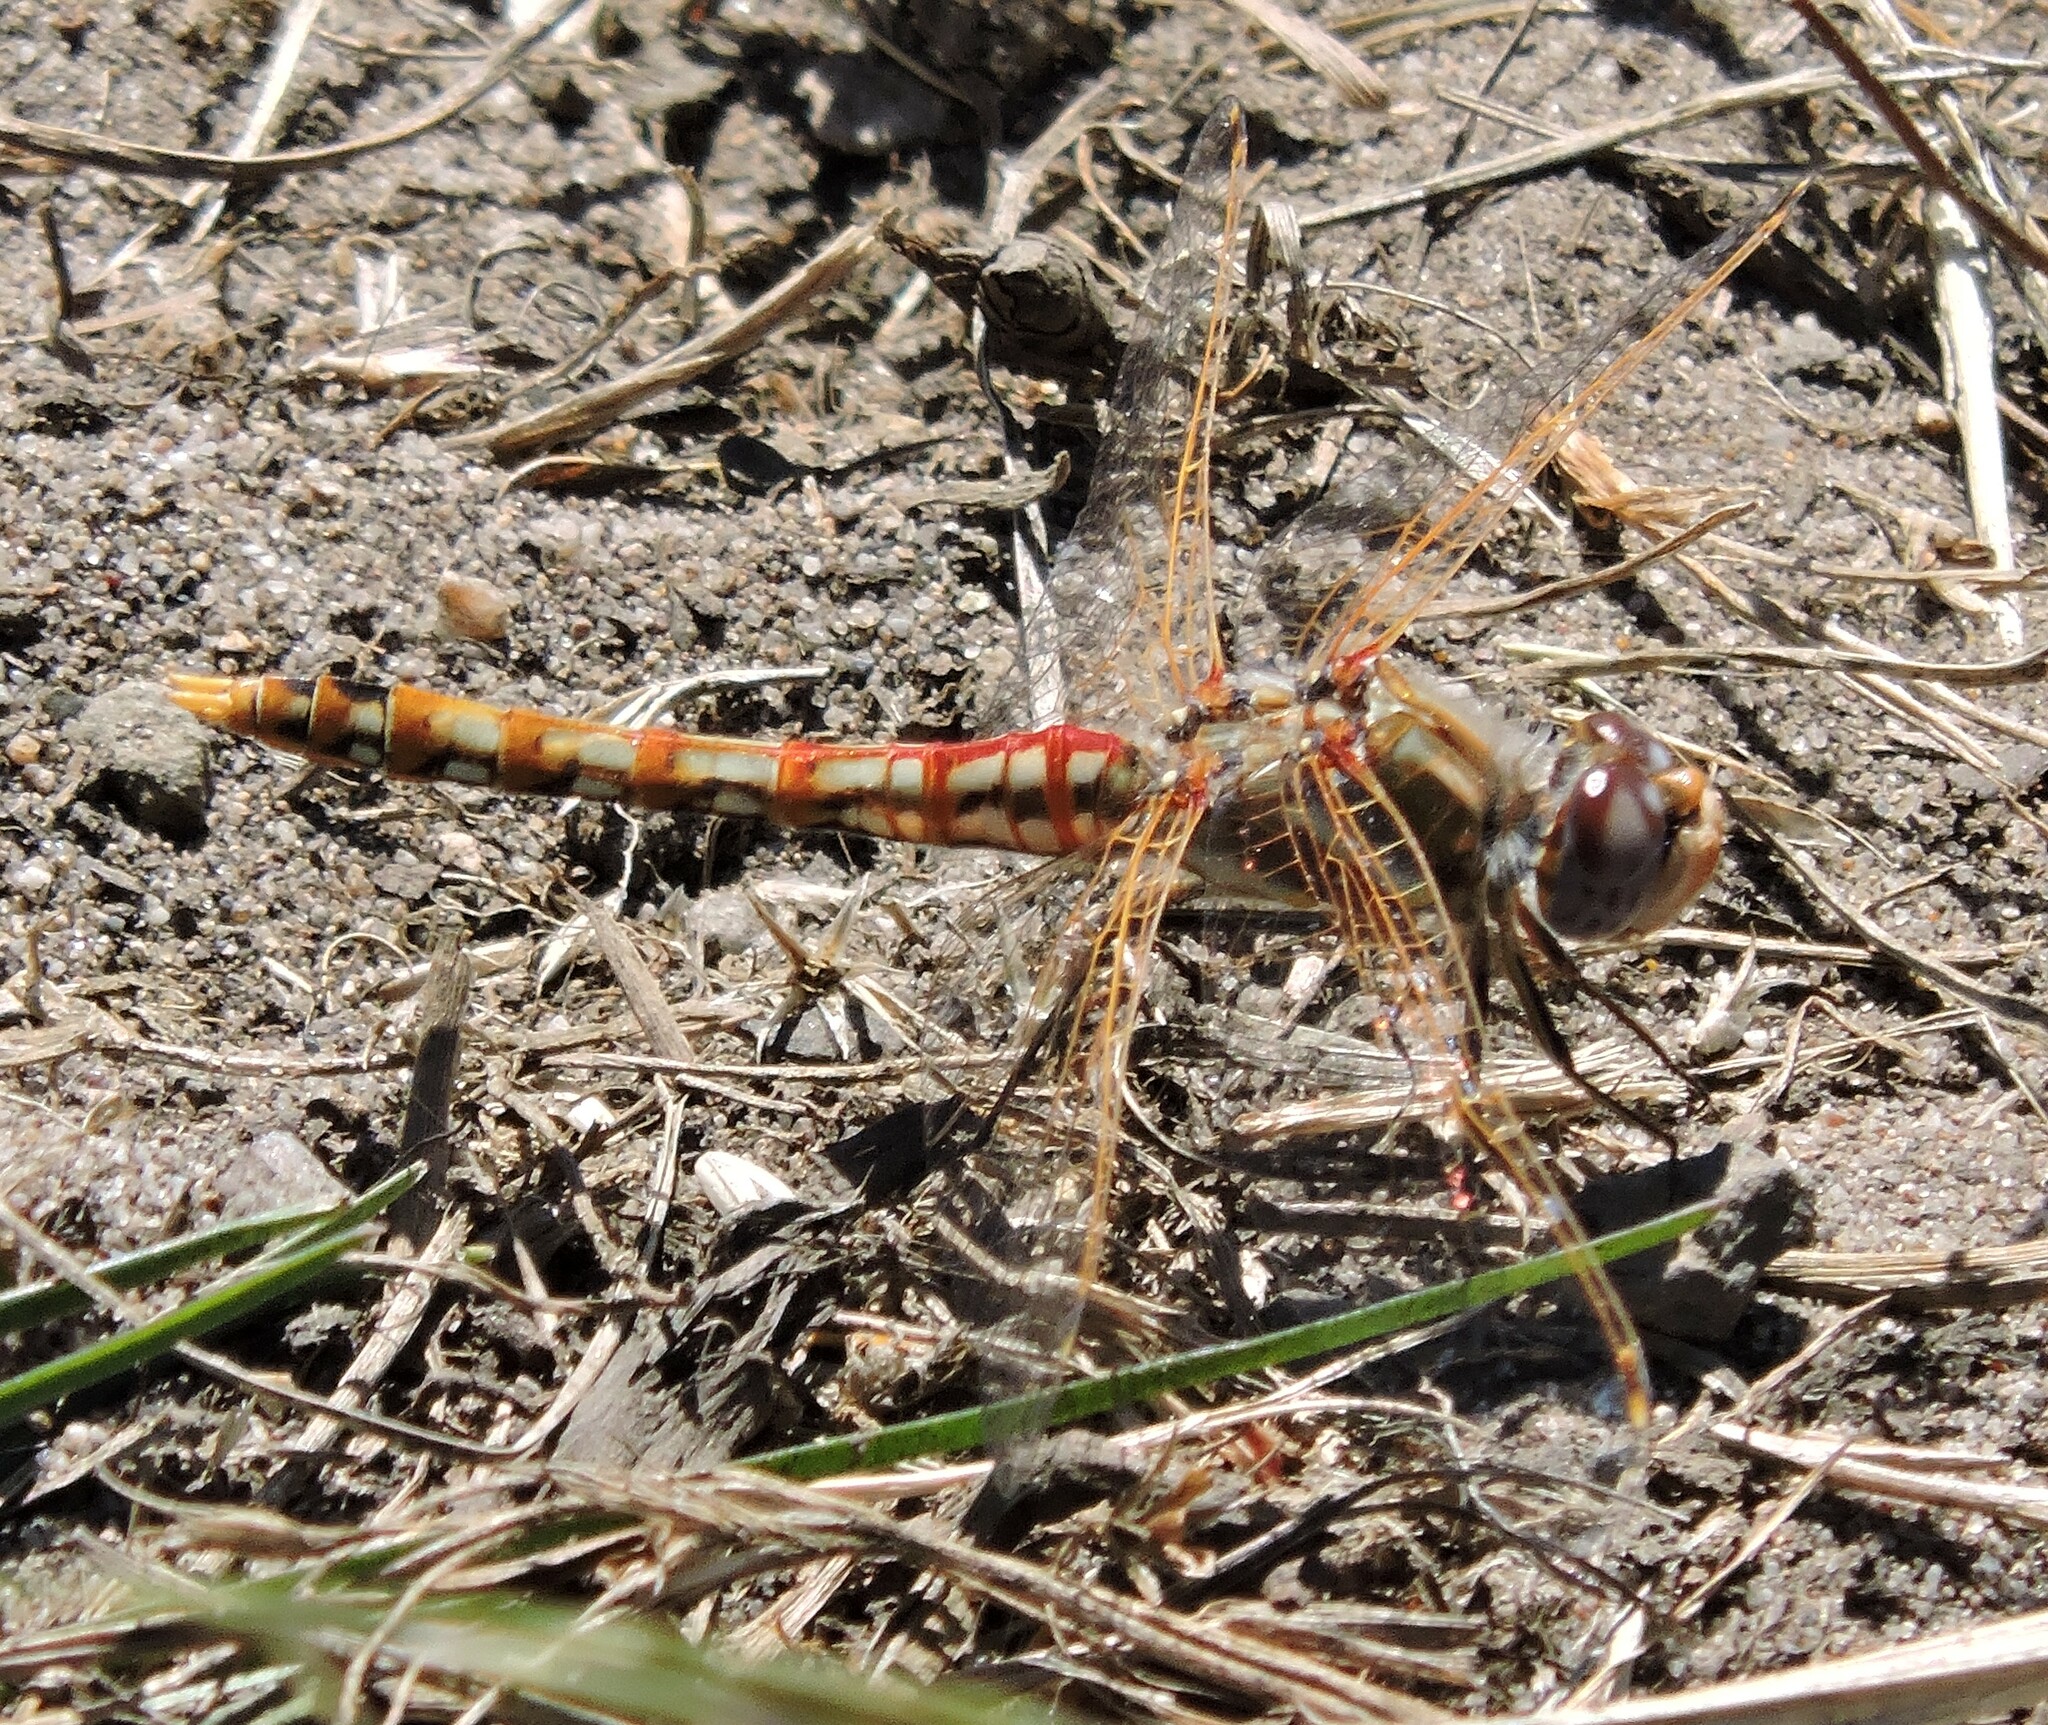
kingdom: Animalia
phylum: Arthropoda
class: Insecta
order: Odonata
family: Libellulidae
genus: Sympetrum
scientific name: Sympetrum corruptum
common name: Variegated meadowhawk
